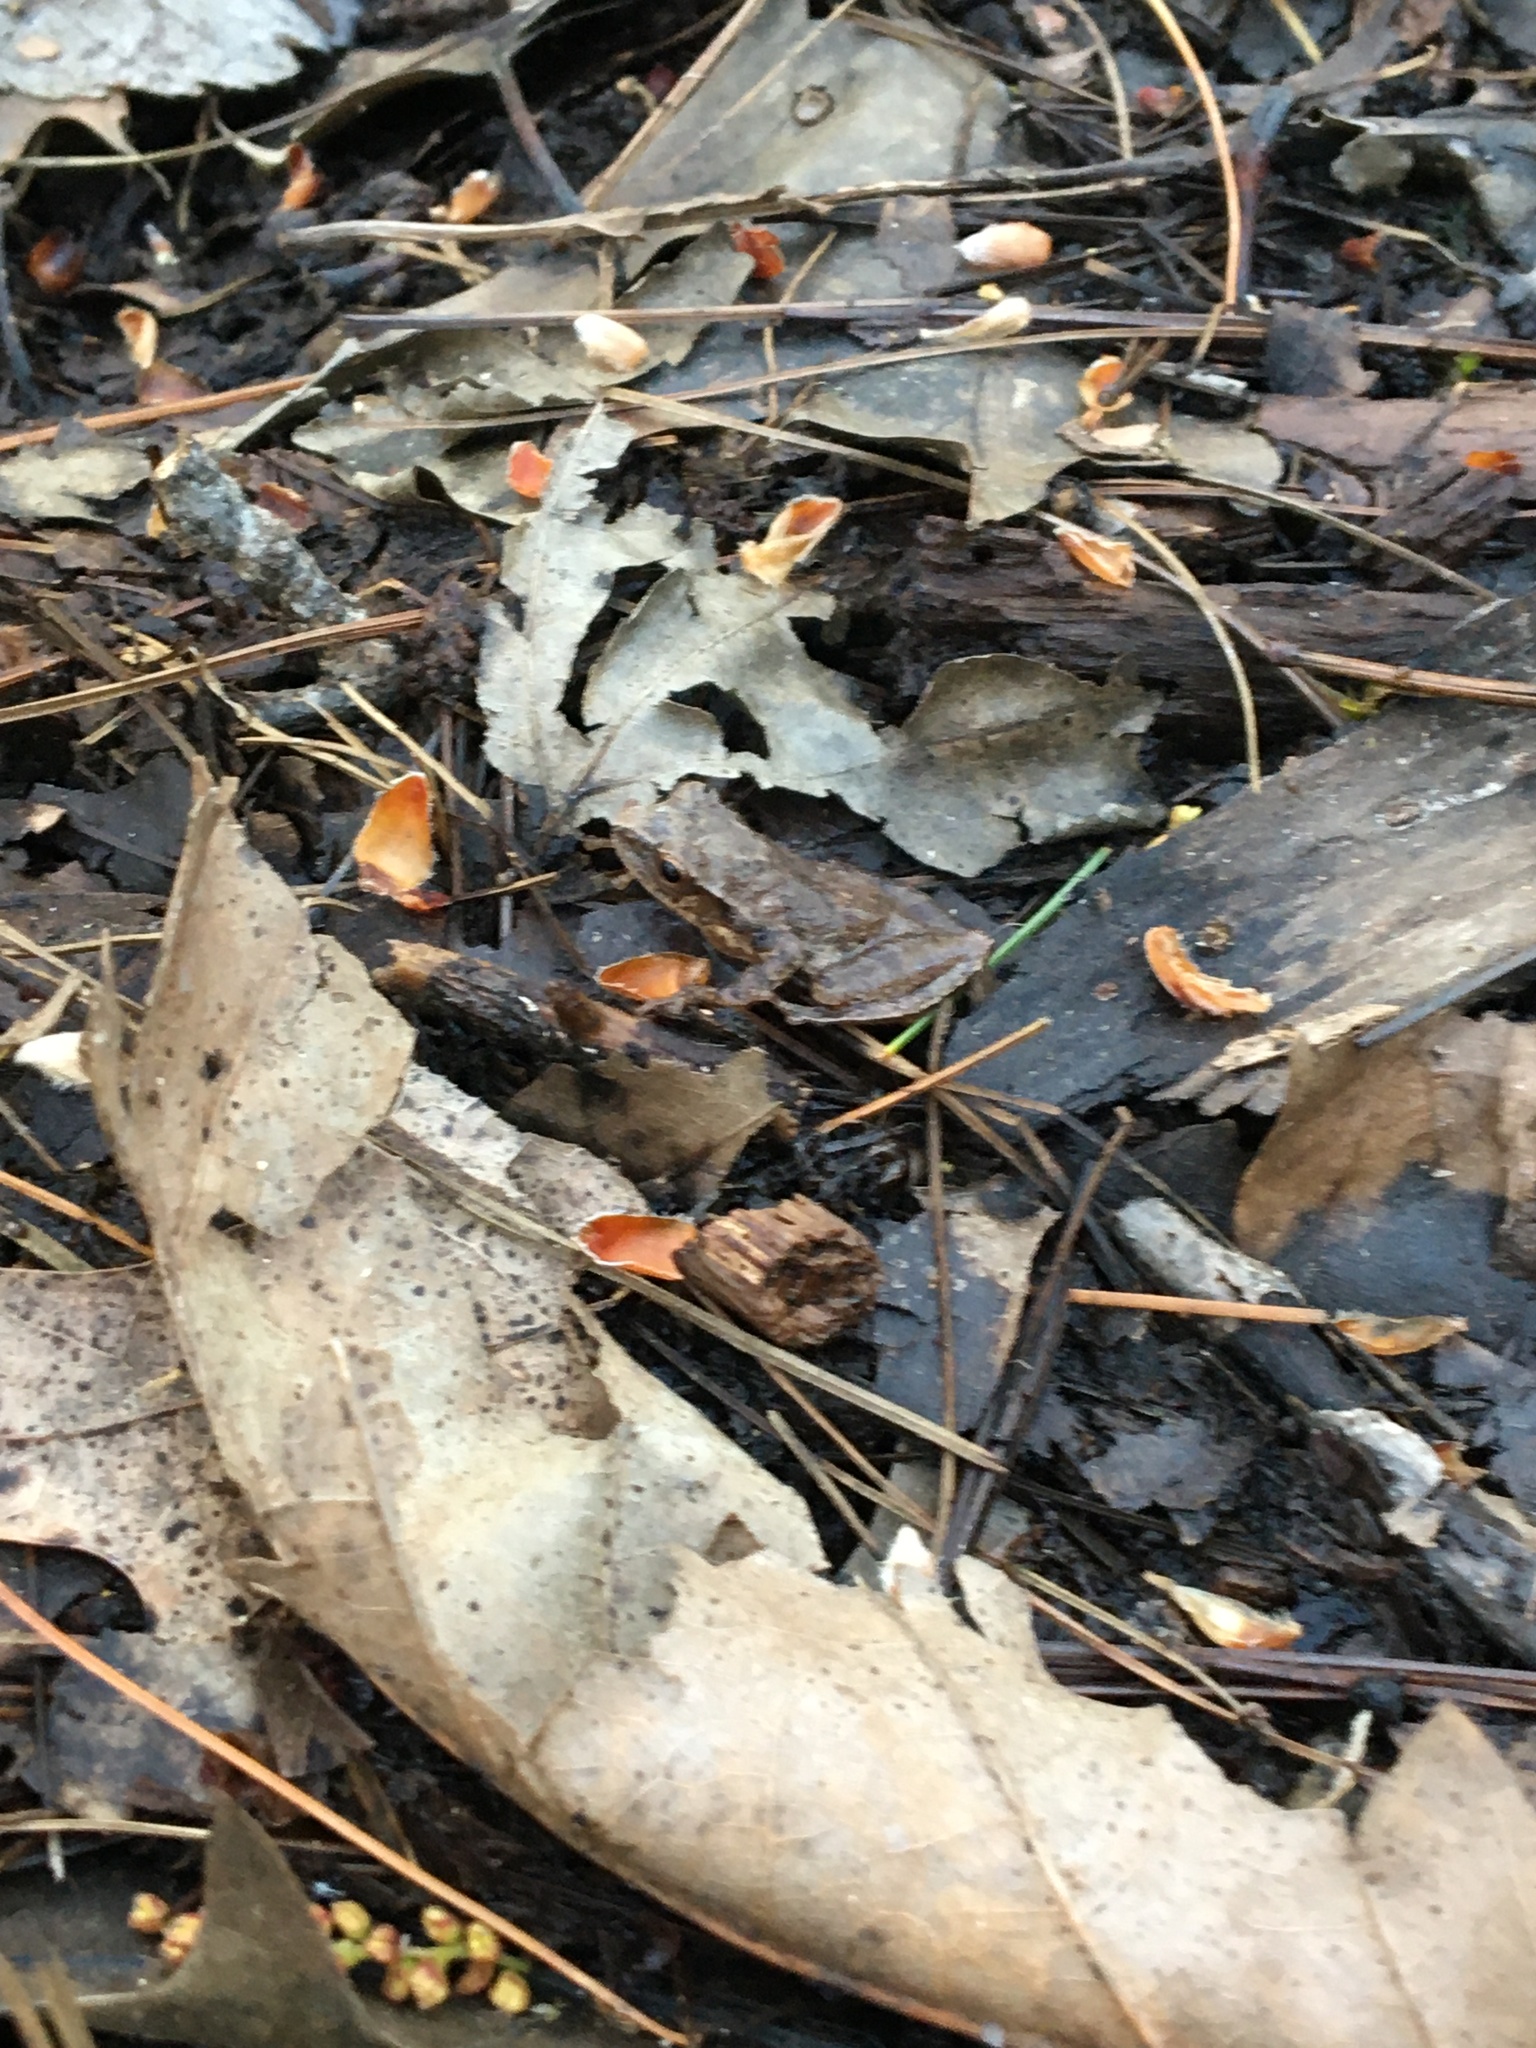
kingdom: Animalia
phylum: Chordata
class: Amphibia
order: Anura
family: Hylidae
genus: Pseudacris
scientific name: Pseudacris crucifer
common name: Spring peeper
